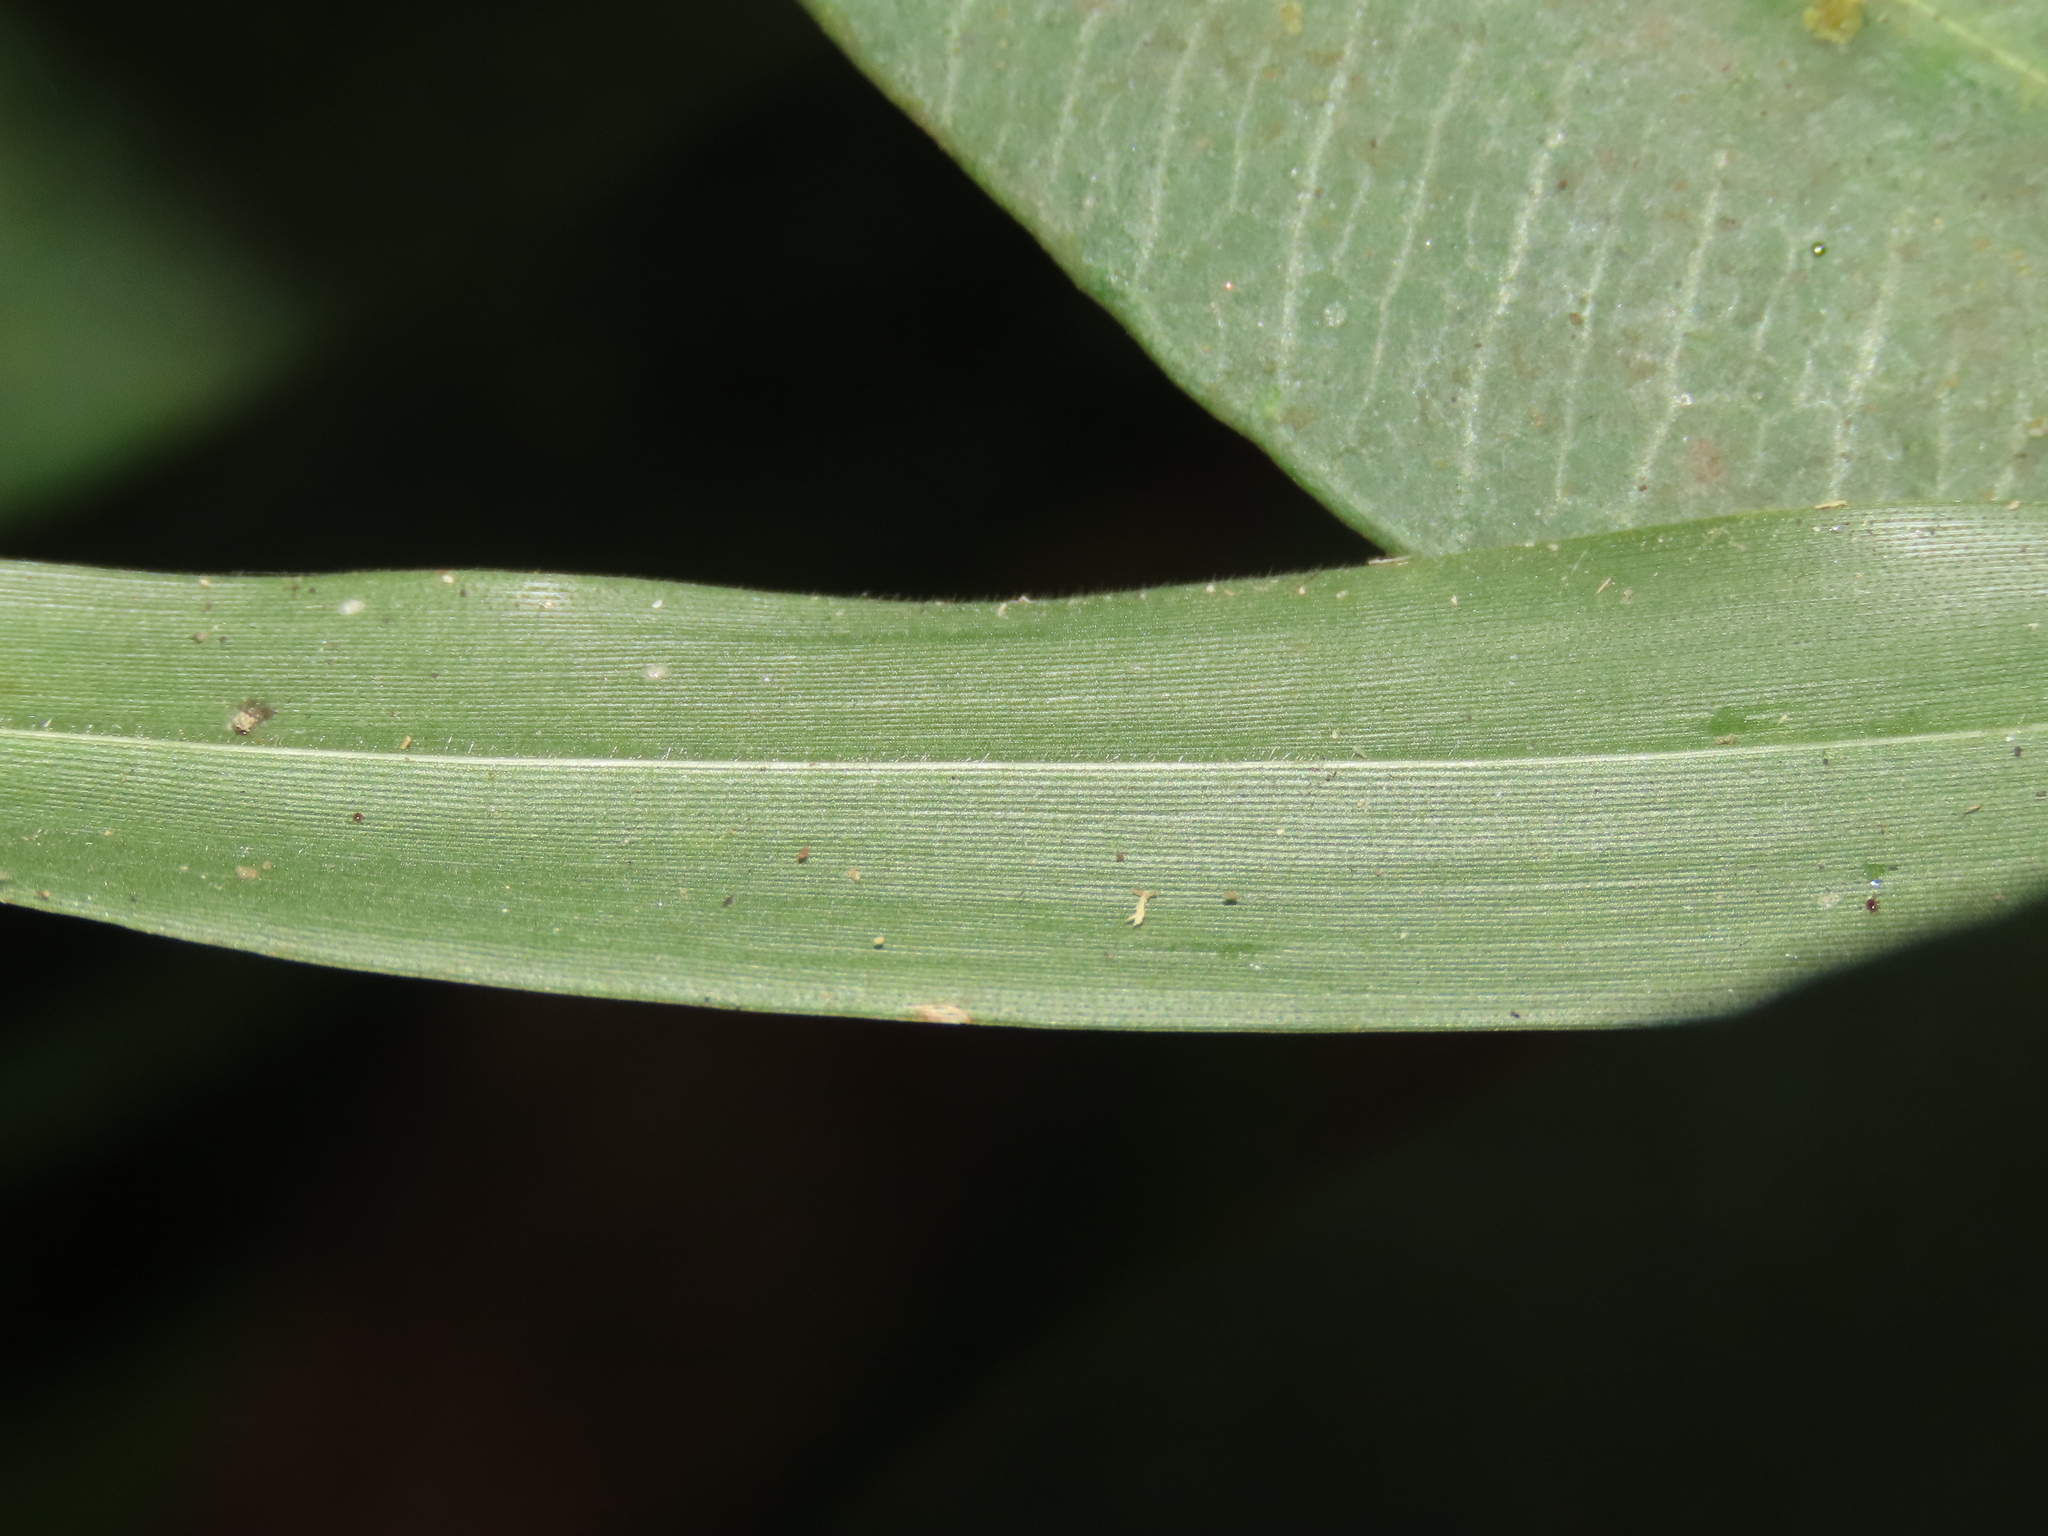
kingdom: Plantae
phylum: Tracheophyta
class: Liliopsida
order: Poales
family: Poaceae
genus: Panicum
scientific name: Panicum sarmentosum
